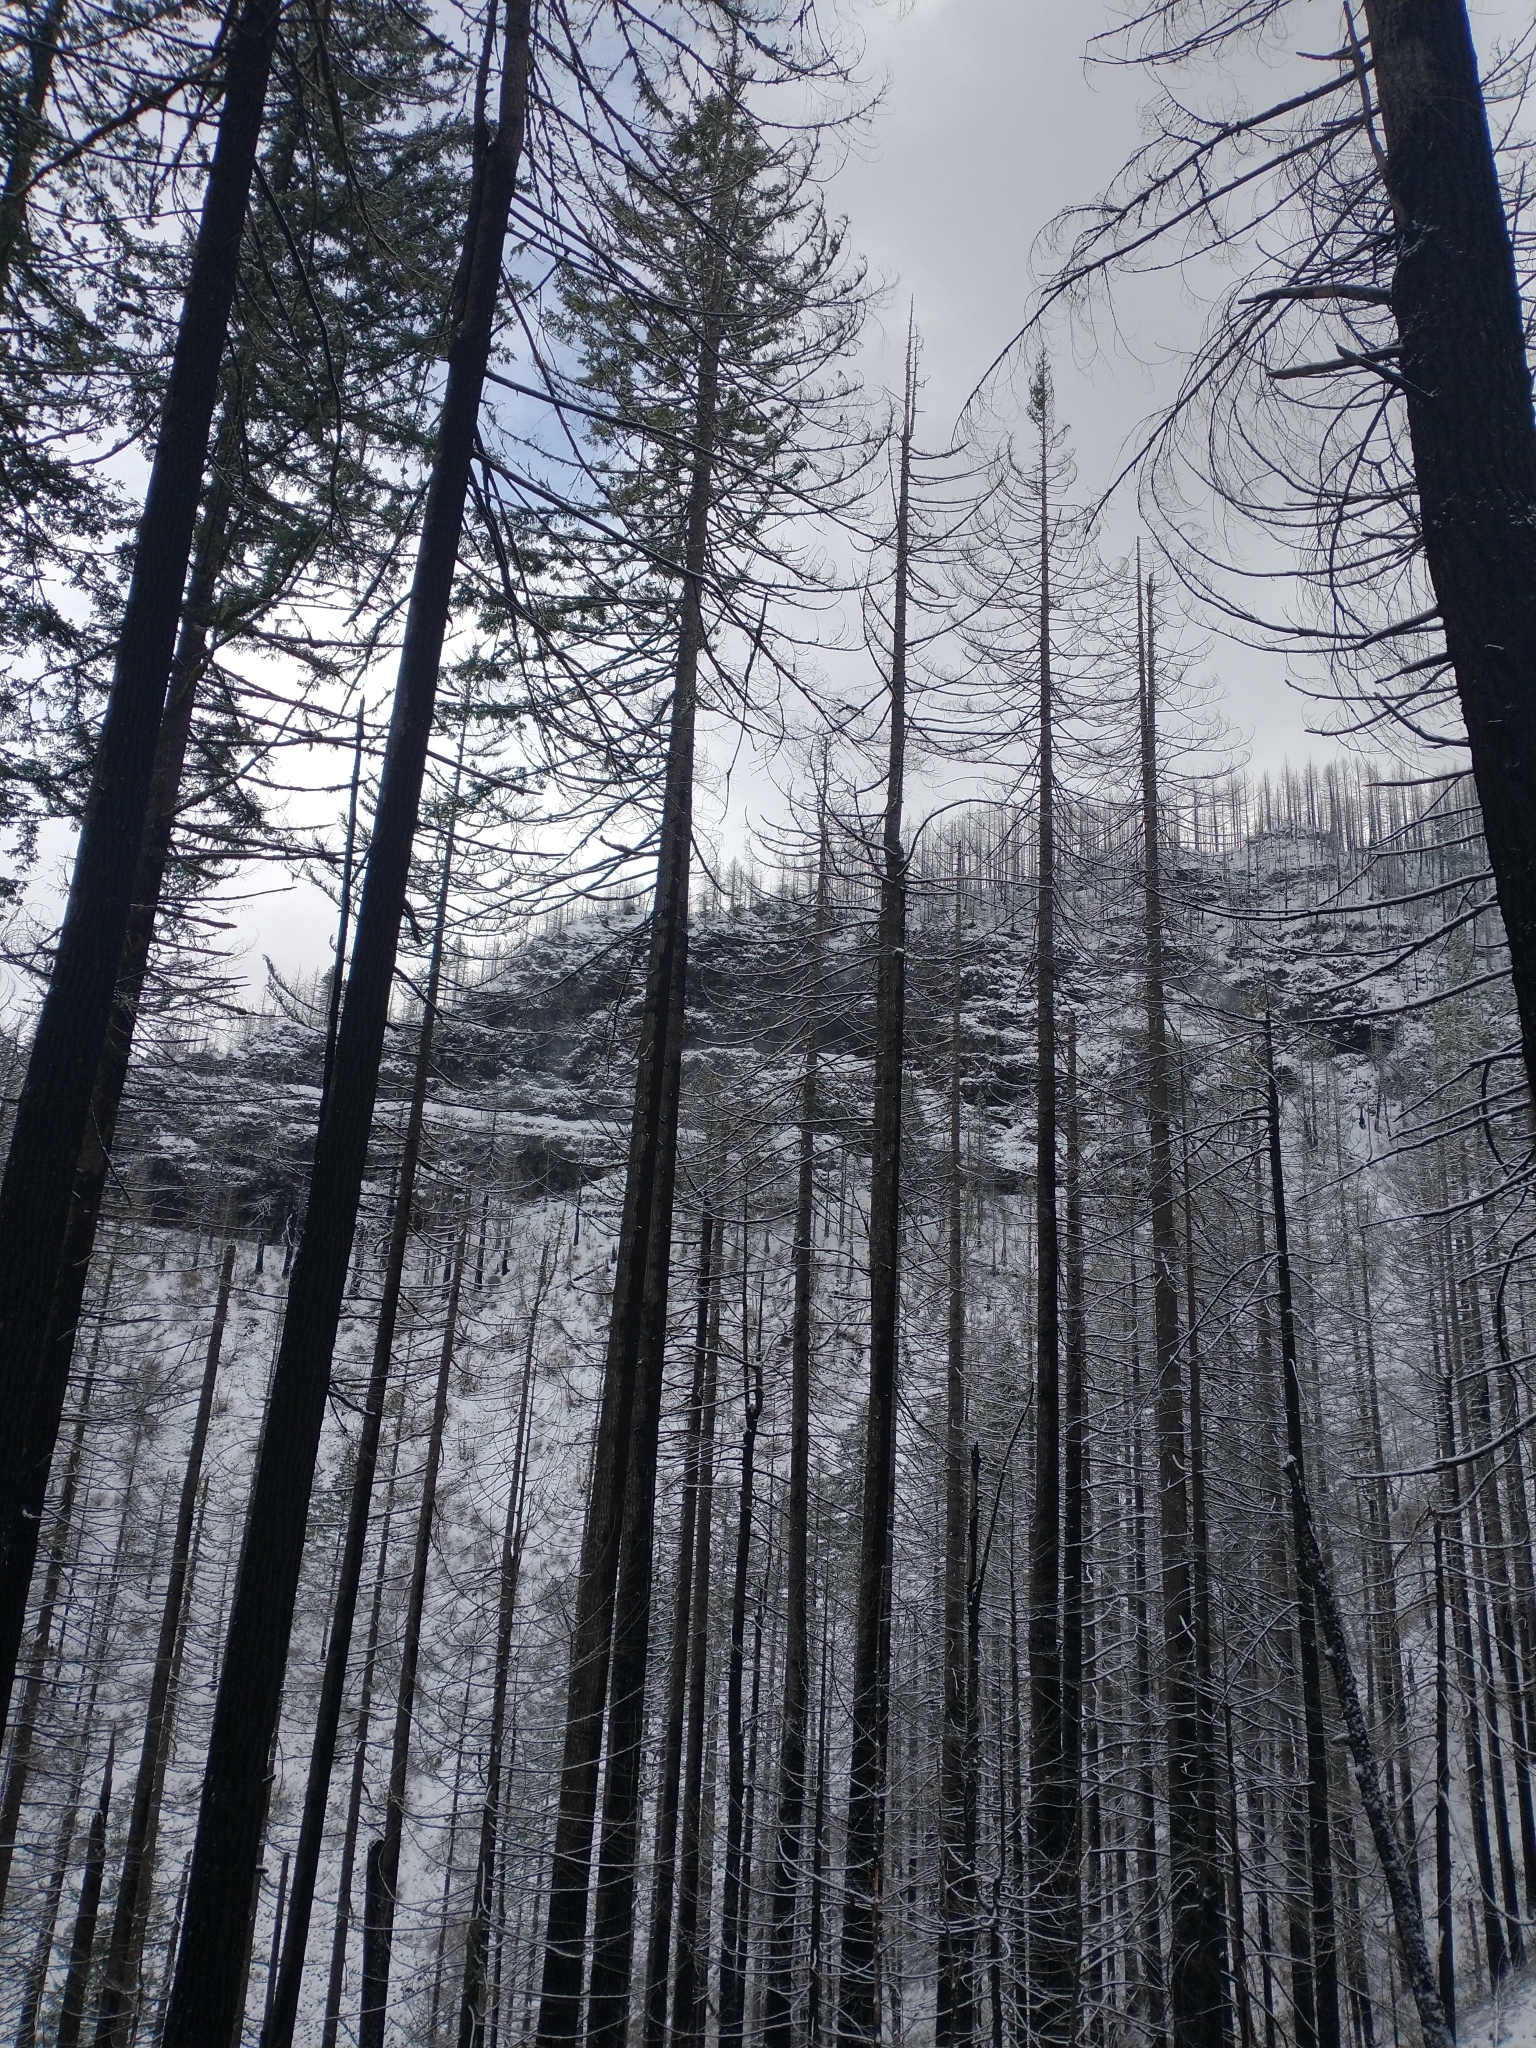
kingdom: Plantae
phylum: Tracheophyta
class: Pinopsida
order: Pinales
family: Pinaceae
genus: Pseudotsuga
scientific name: Pseudotsuga menziesii
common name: Douglas fir
